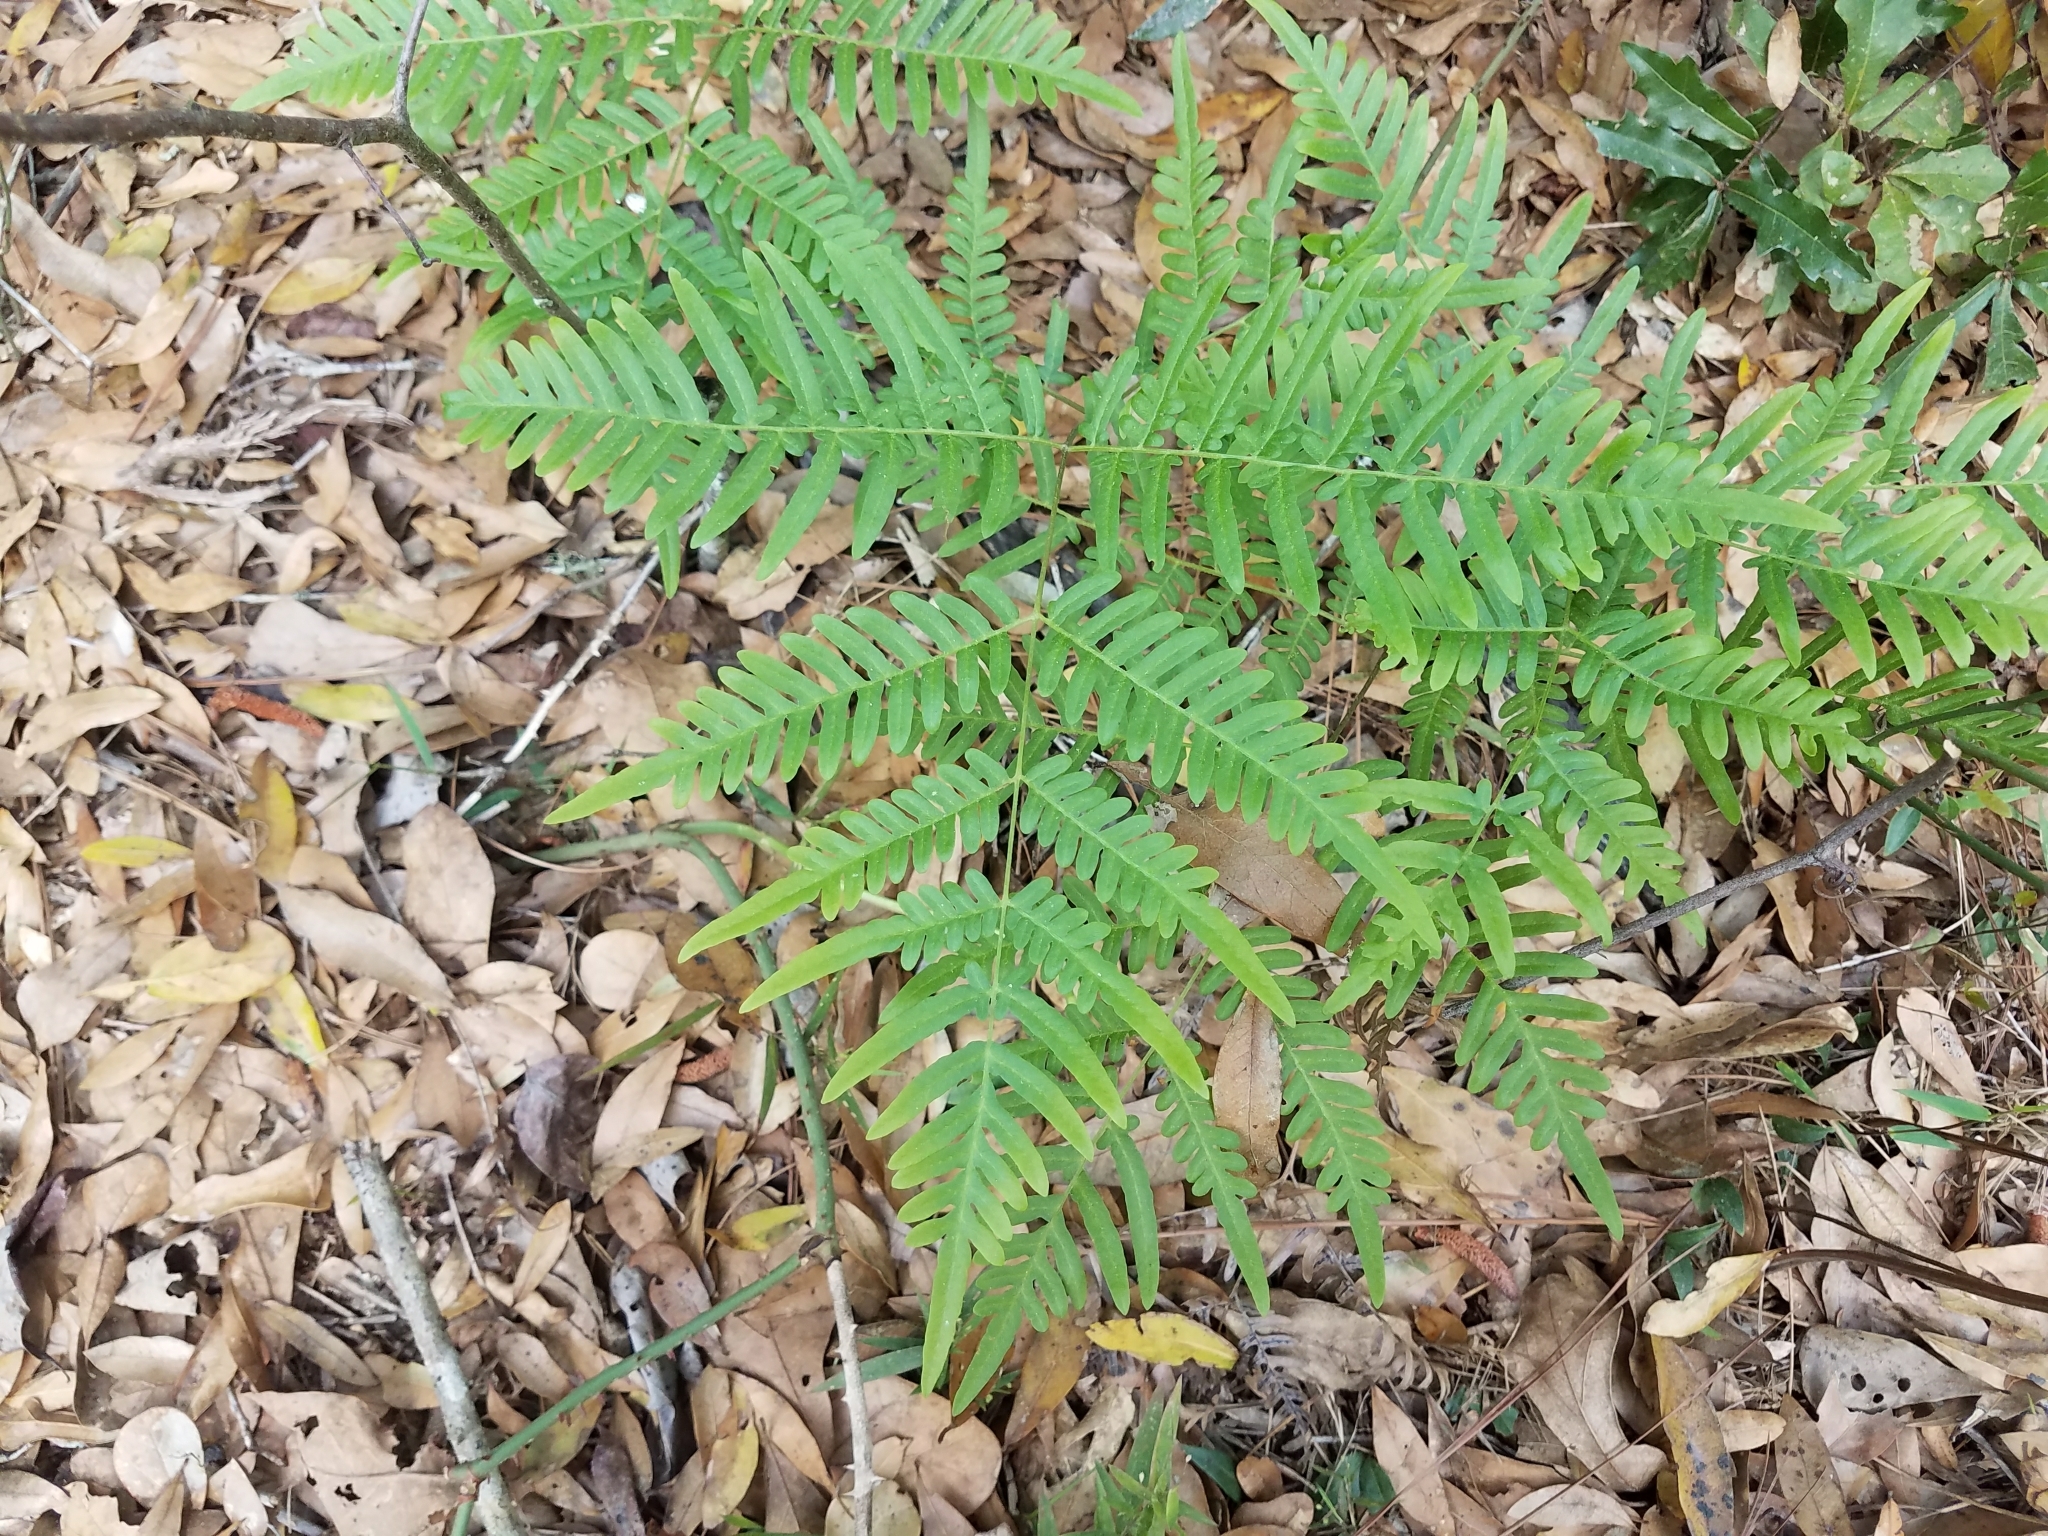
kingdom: Plantae
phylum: Tracheophyta
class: Polypodiopsida
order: Polypodiales
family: Dennstaedtiaceae
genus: Pteridium
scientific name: Pteridium aquilinum
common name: Bracken
